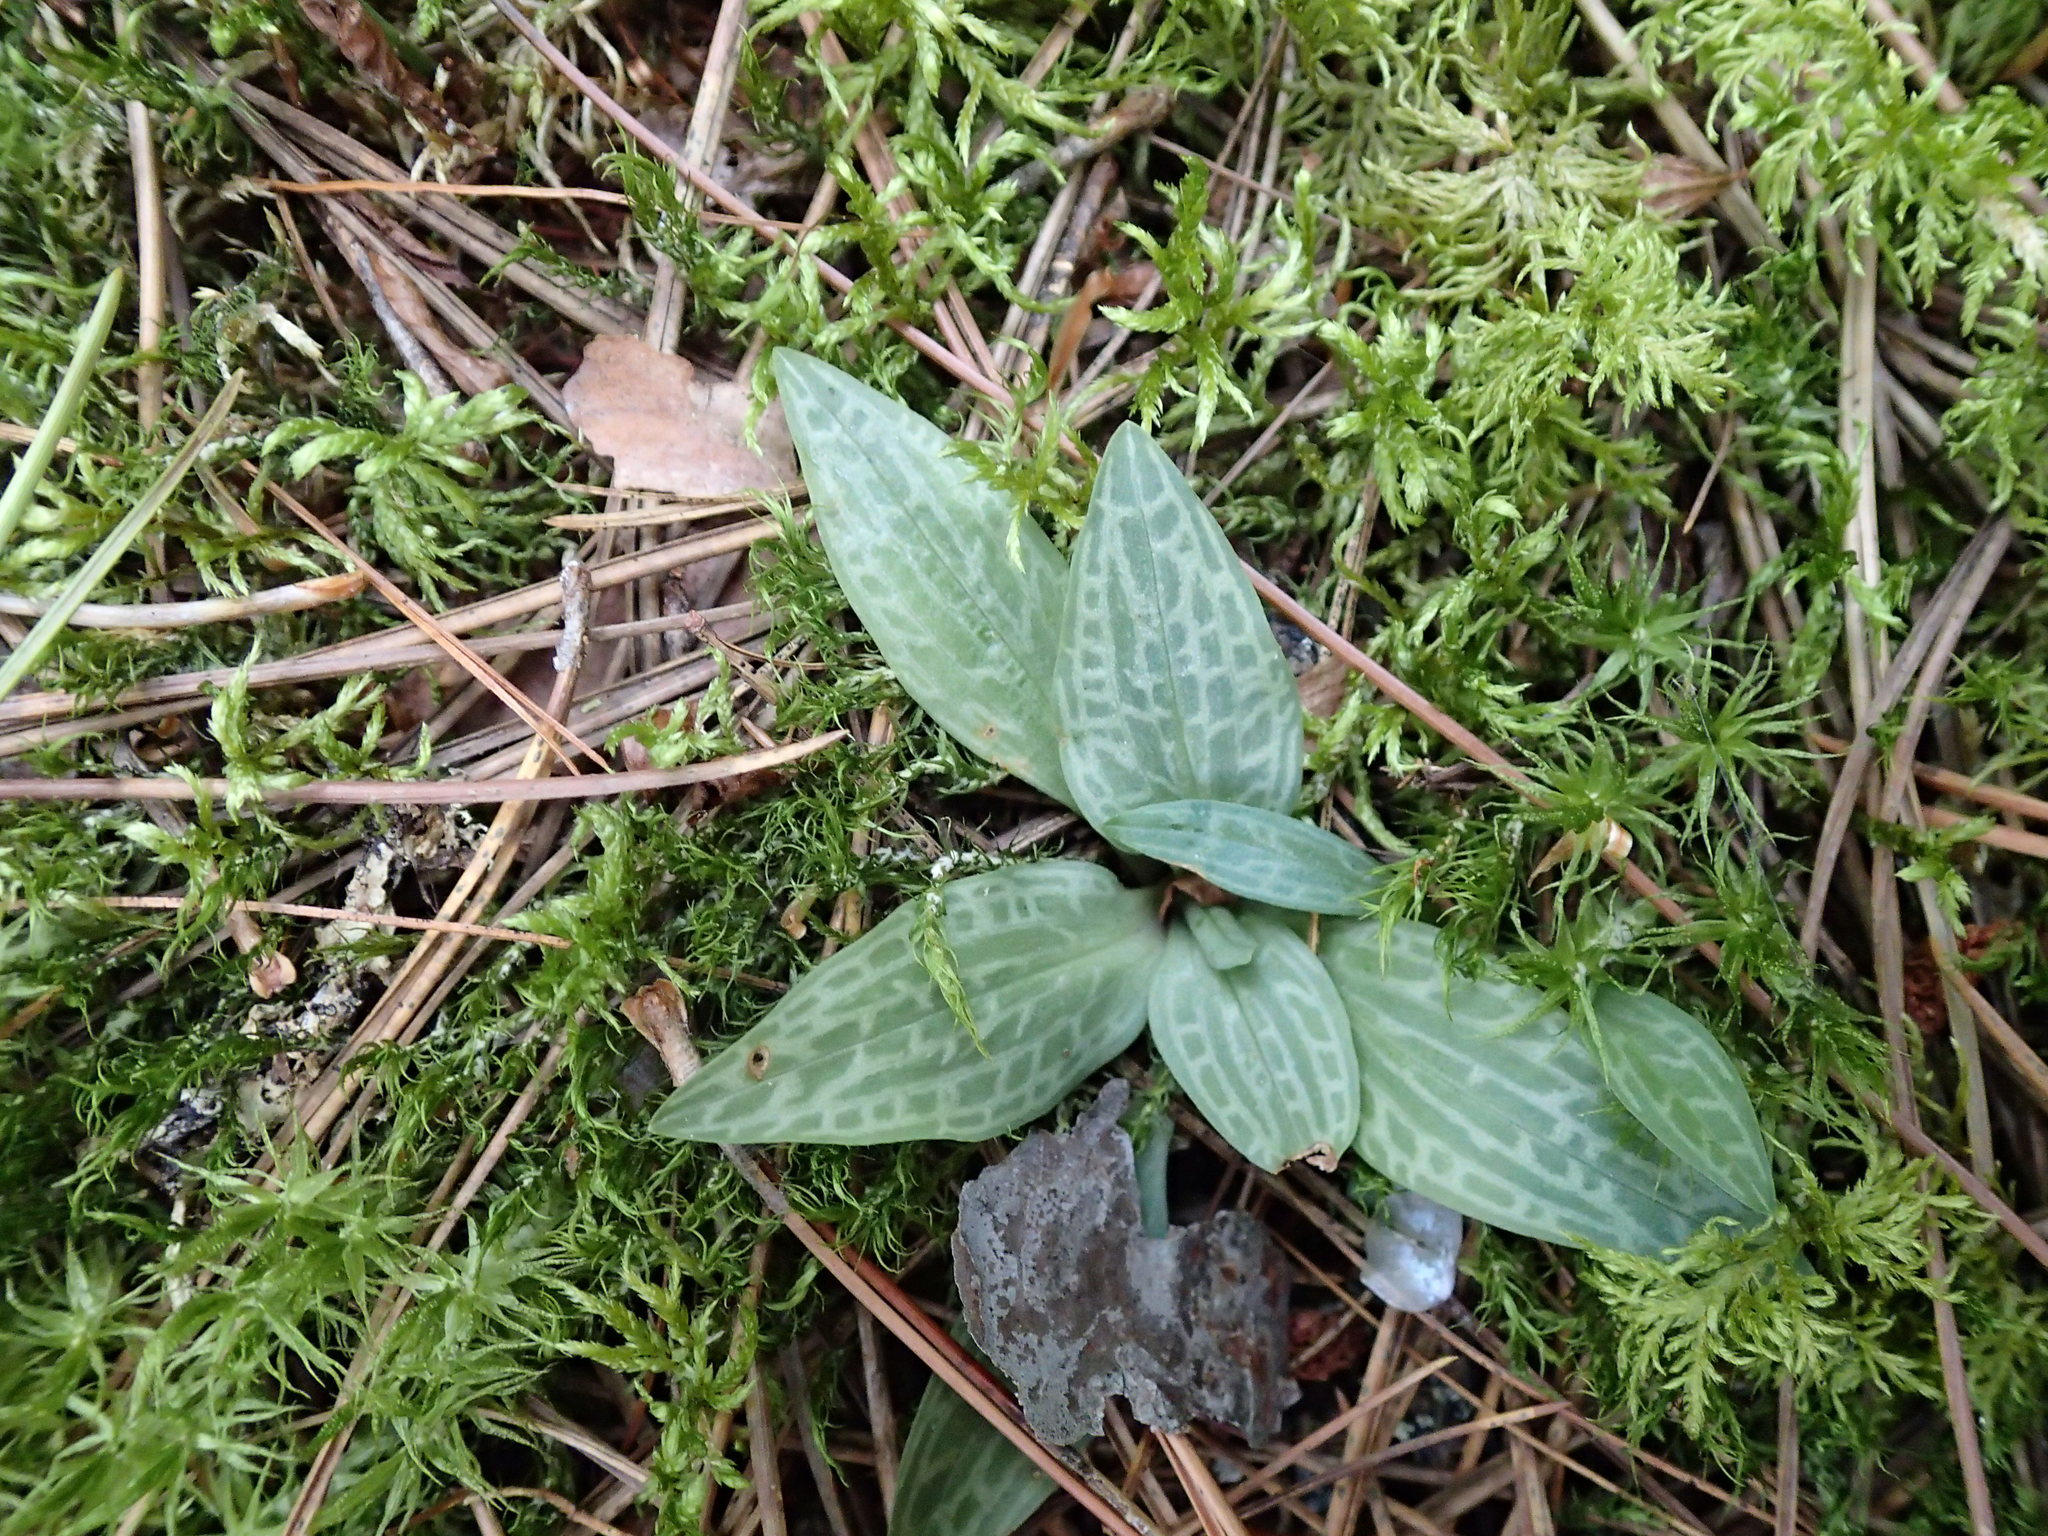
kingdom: Plantae
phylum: Tracheophyta
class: Liliopsida
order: Asparagales
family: Orchidaceae
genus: Goodyera
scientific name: Goodyera tesselata
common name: Checkered rattlesnake-plantain
